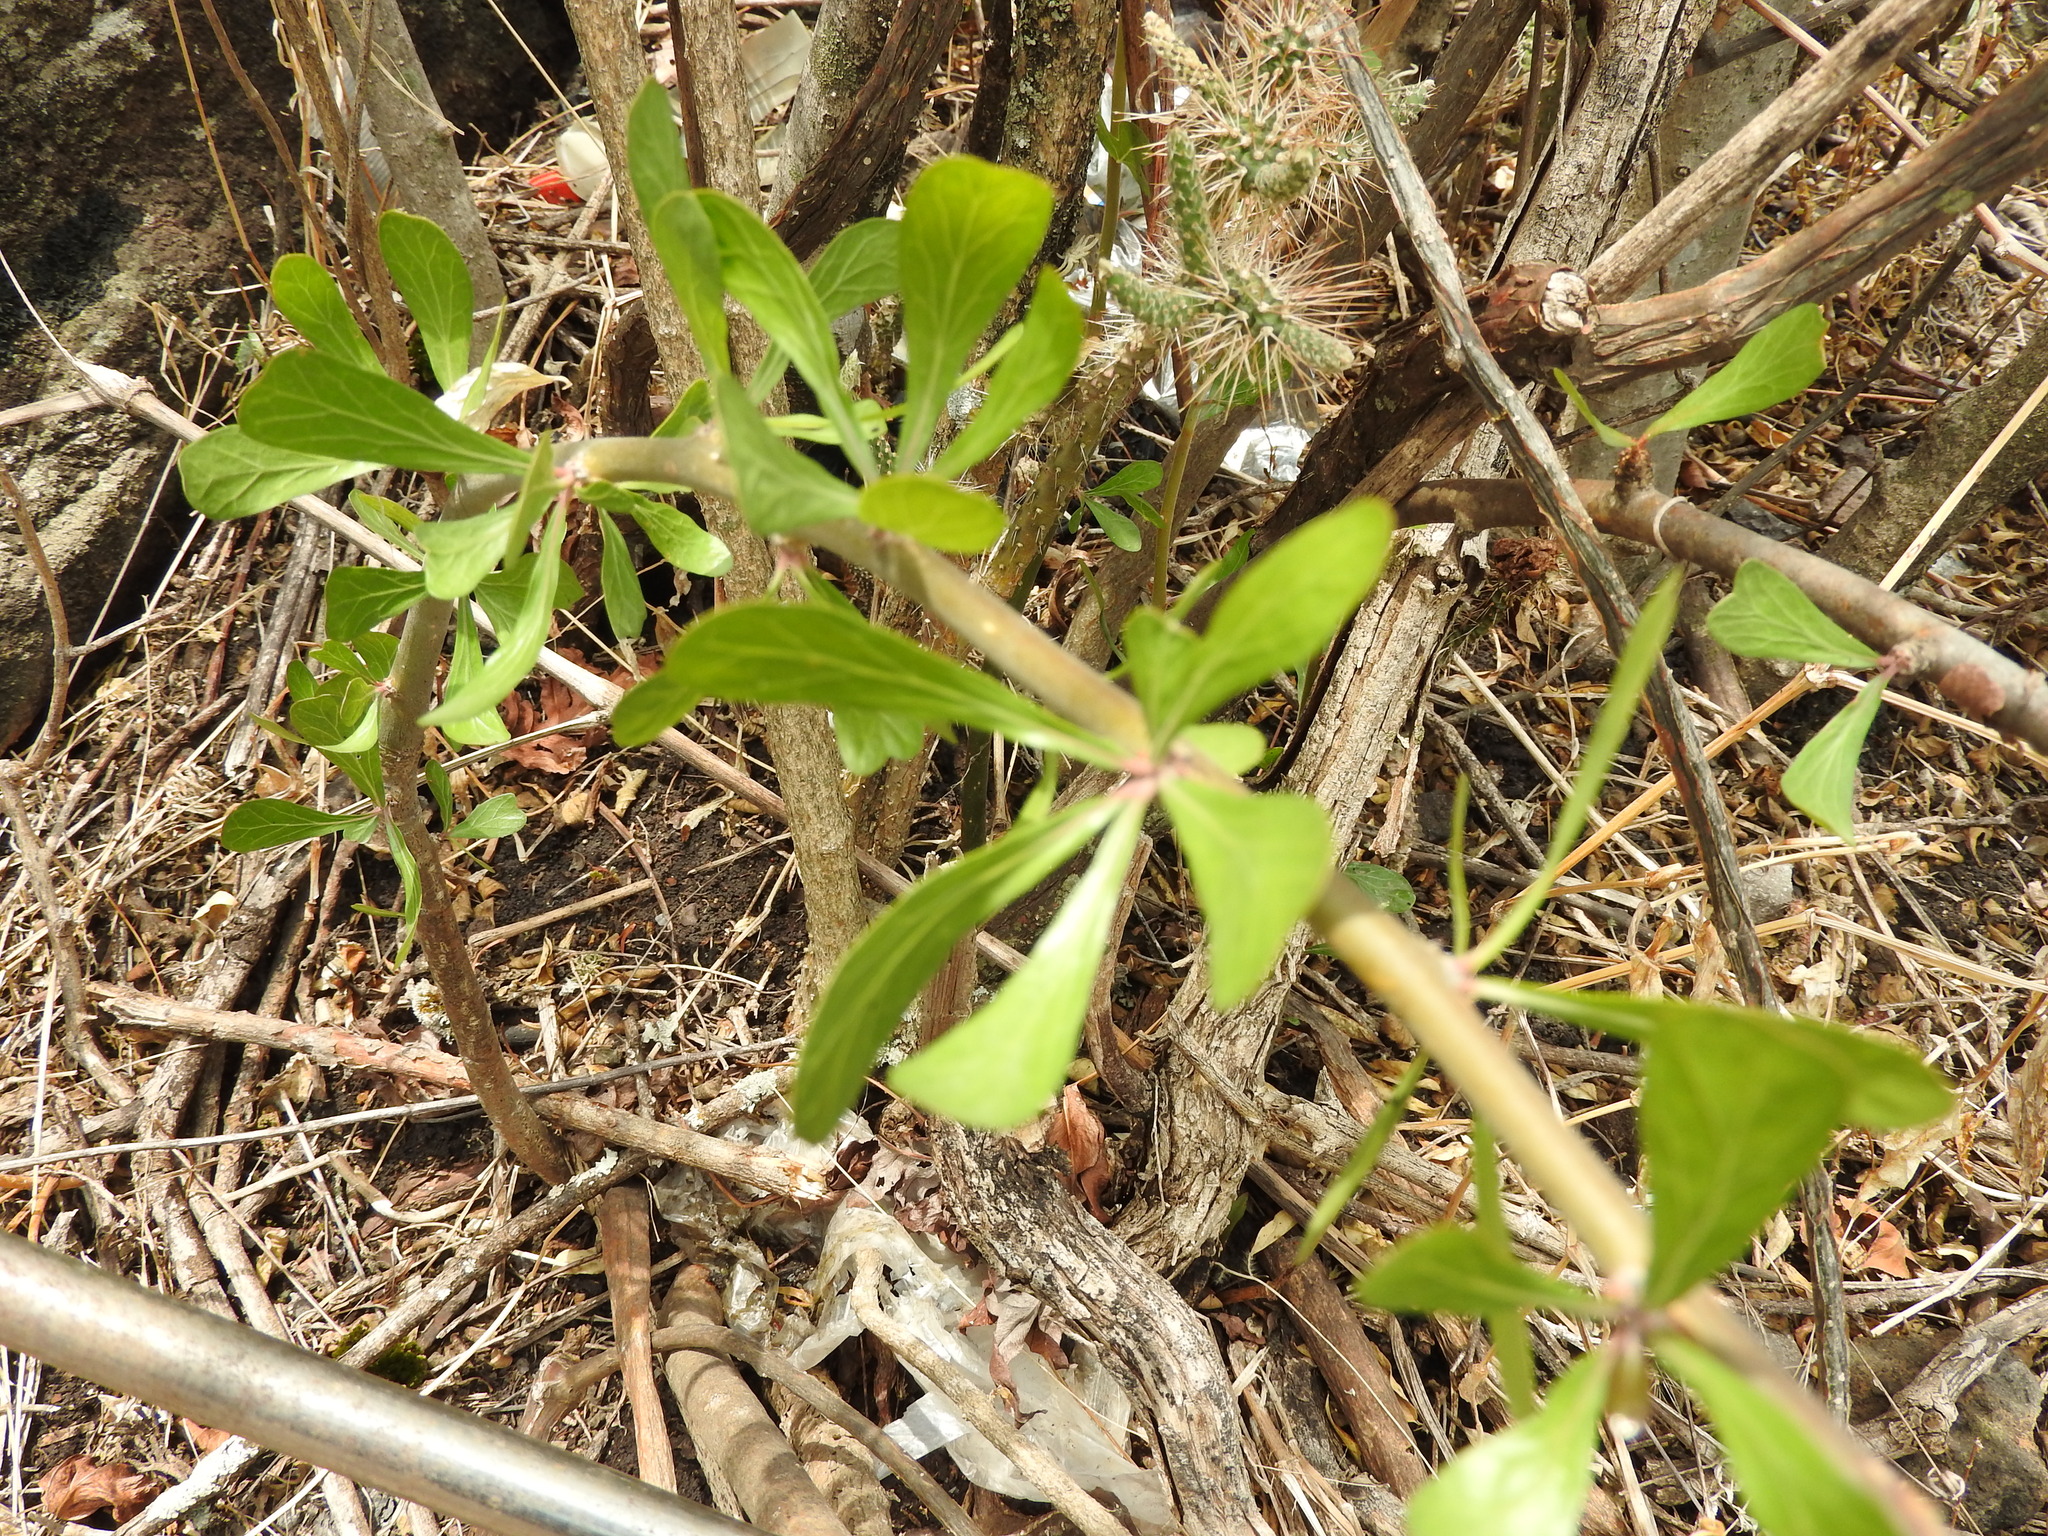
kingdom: Plantae
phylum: Tracheophyta
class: Magnoliopsida
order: Malpighiales
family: Euphorbiaceae
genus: Jatropha
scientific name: Jatropha dioica
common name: Leatherstem
